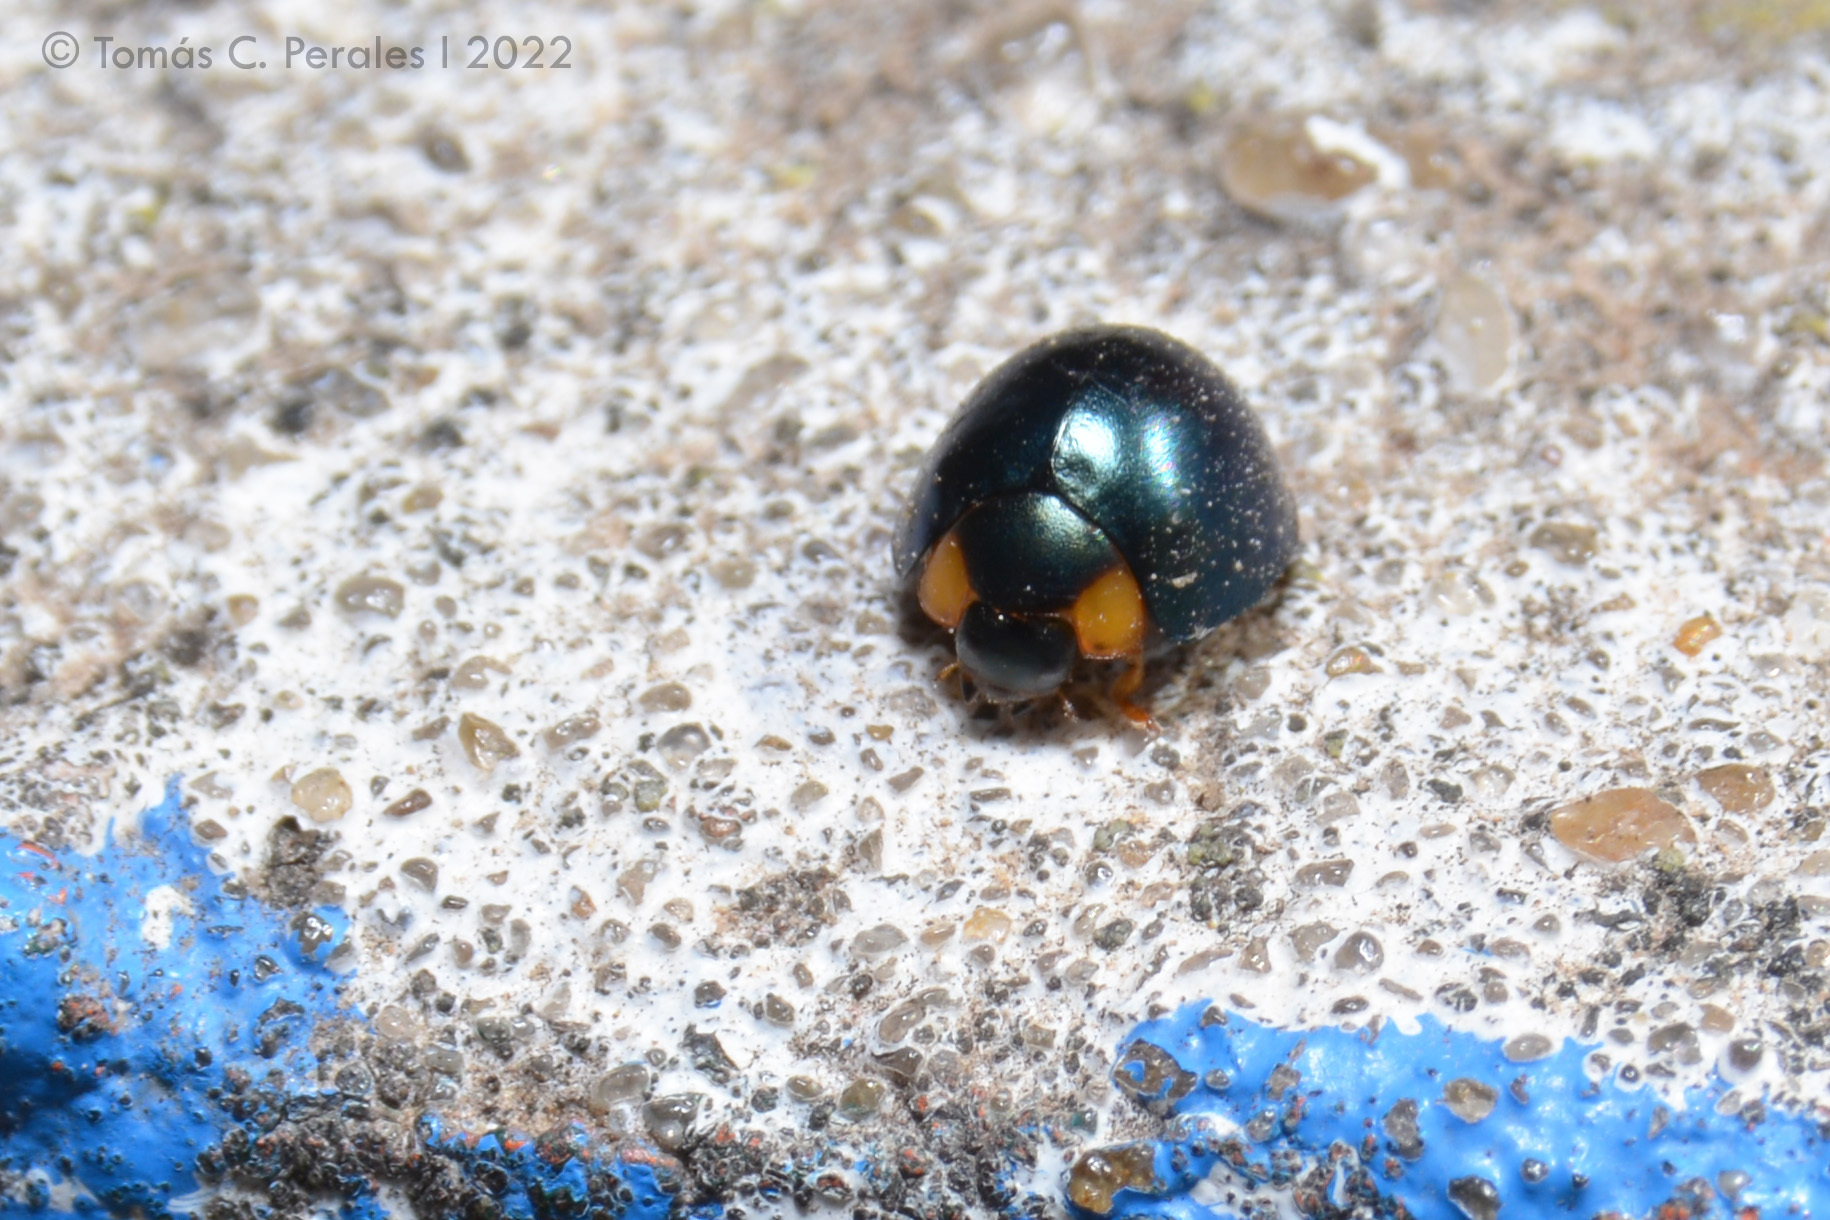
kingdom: Animalia
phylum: Arthropoda
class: Insecta
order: Coleoptera
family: Coccinellidae
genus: Curinus
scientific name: Curinus coeruleus
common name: Ladybird beetle
